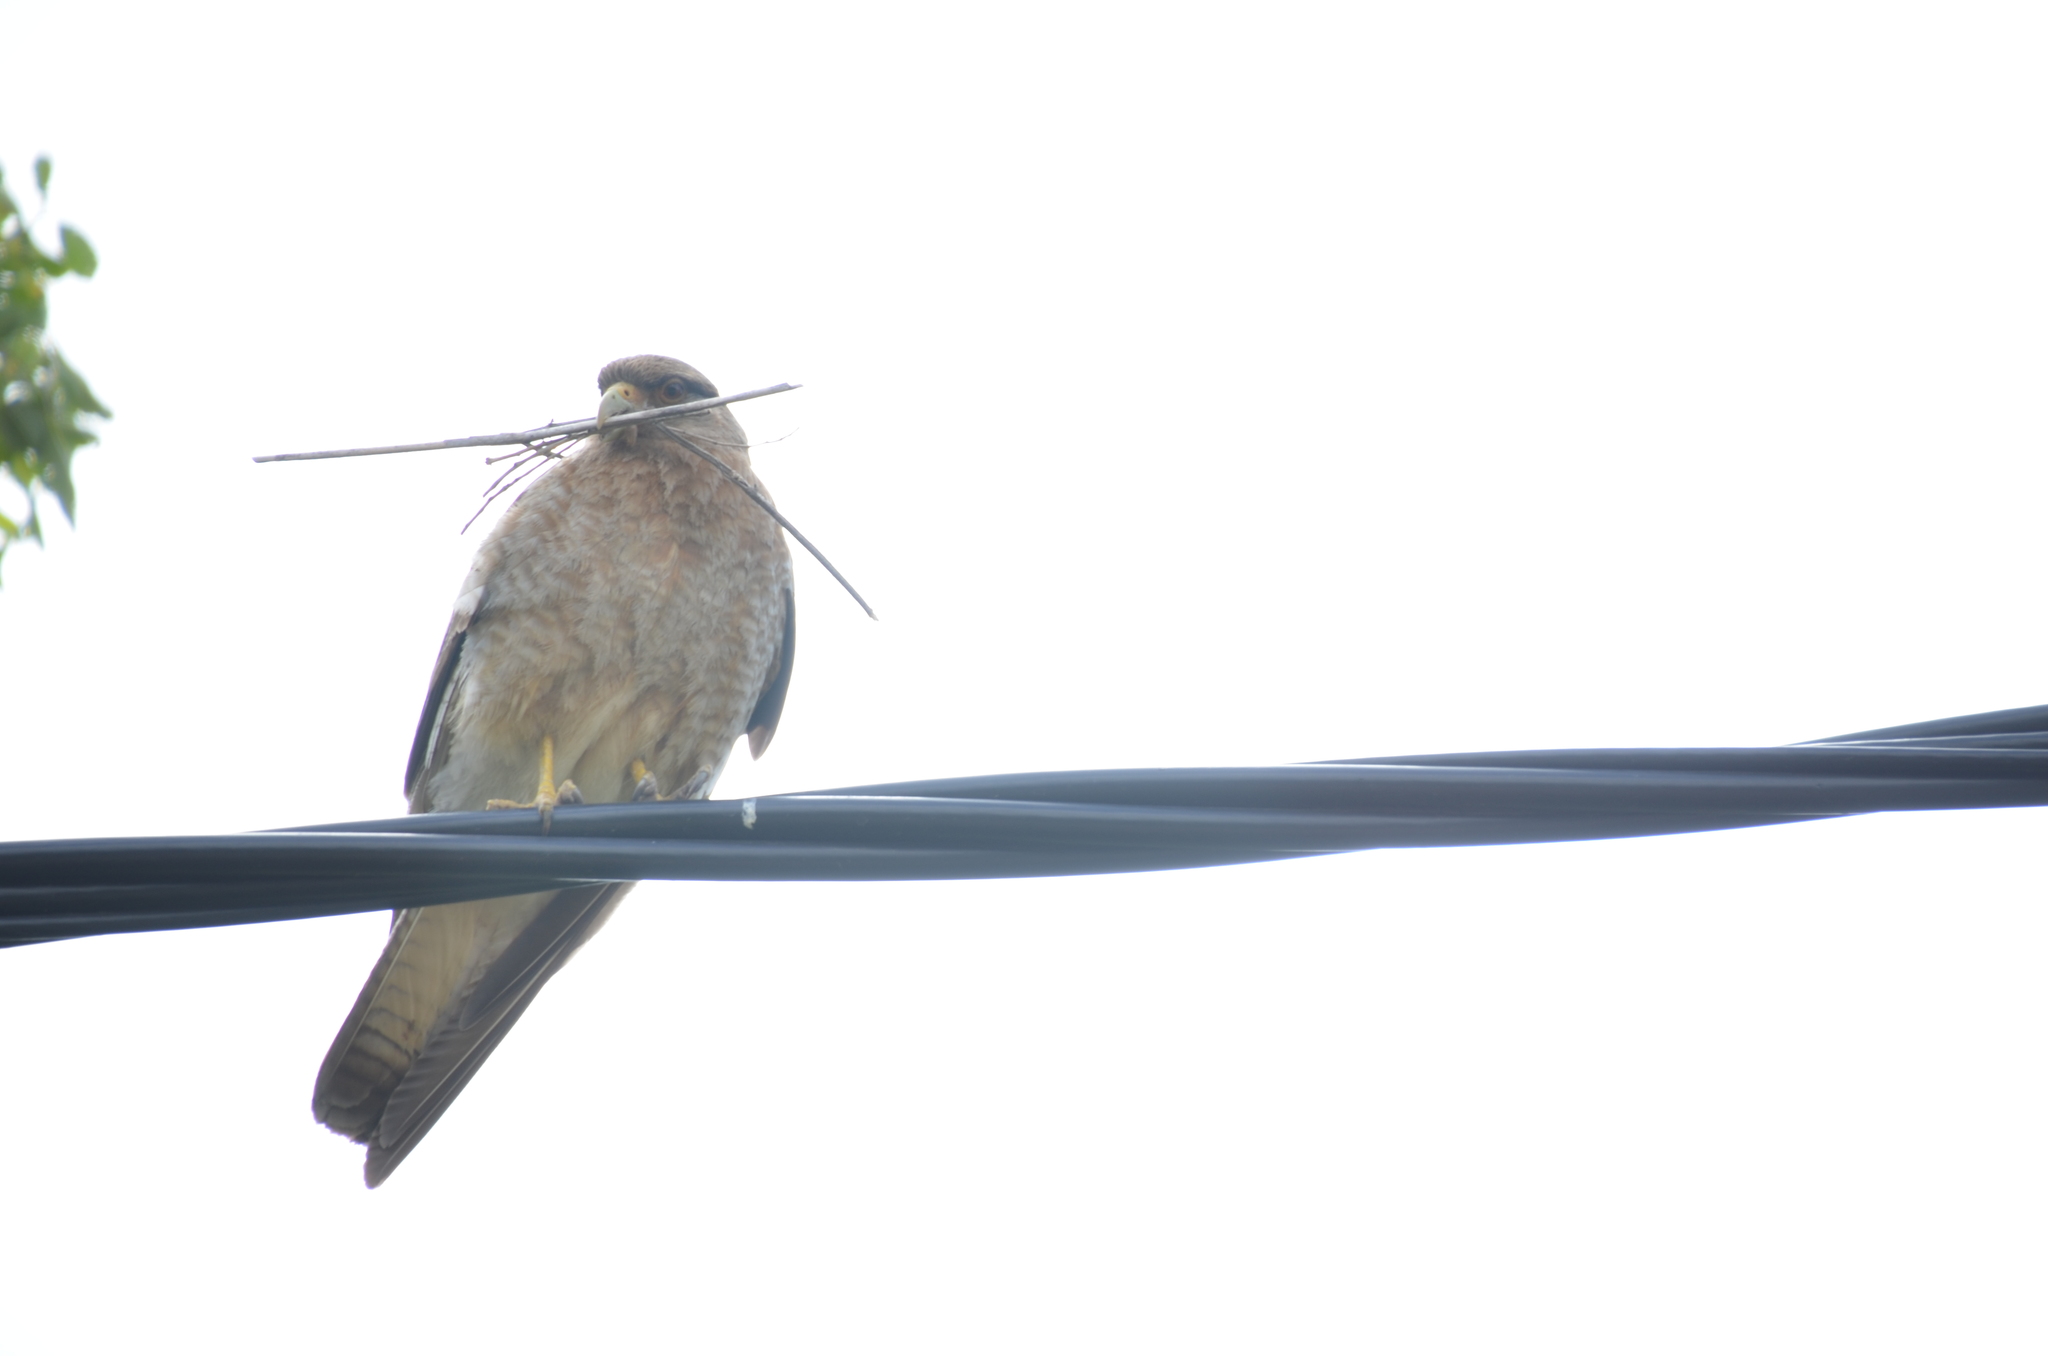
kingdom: Animalia
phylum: Chordata
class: Aves
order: Falconiformes
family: Falconidae
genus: Daptrius
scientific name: Daptrius
